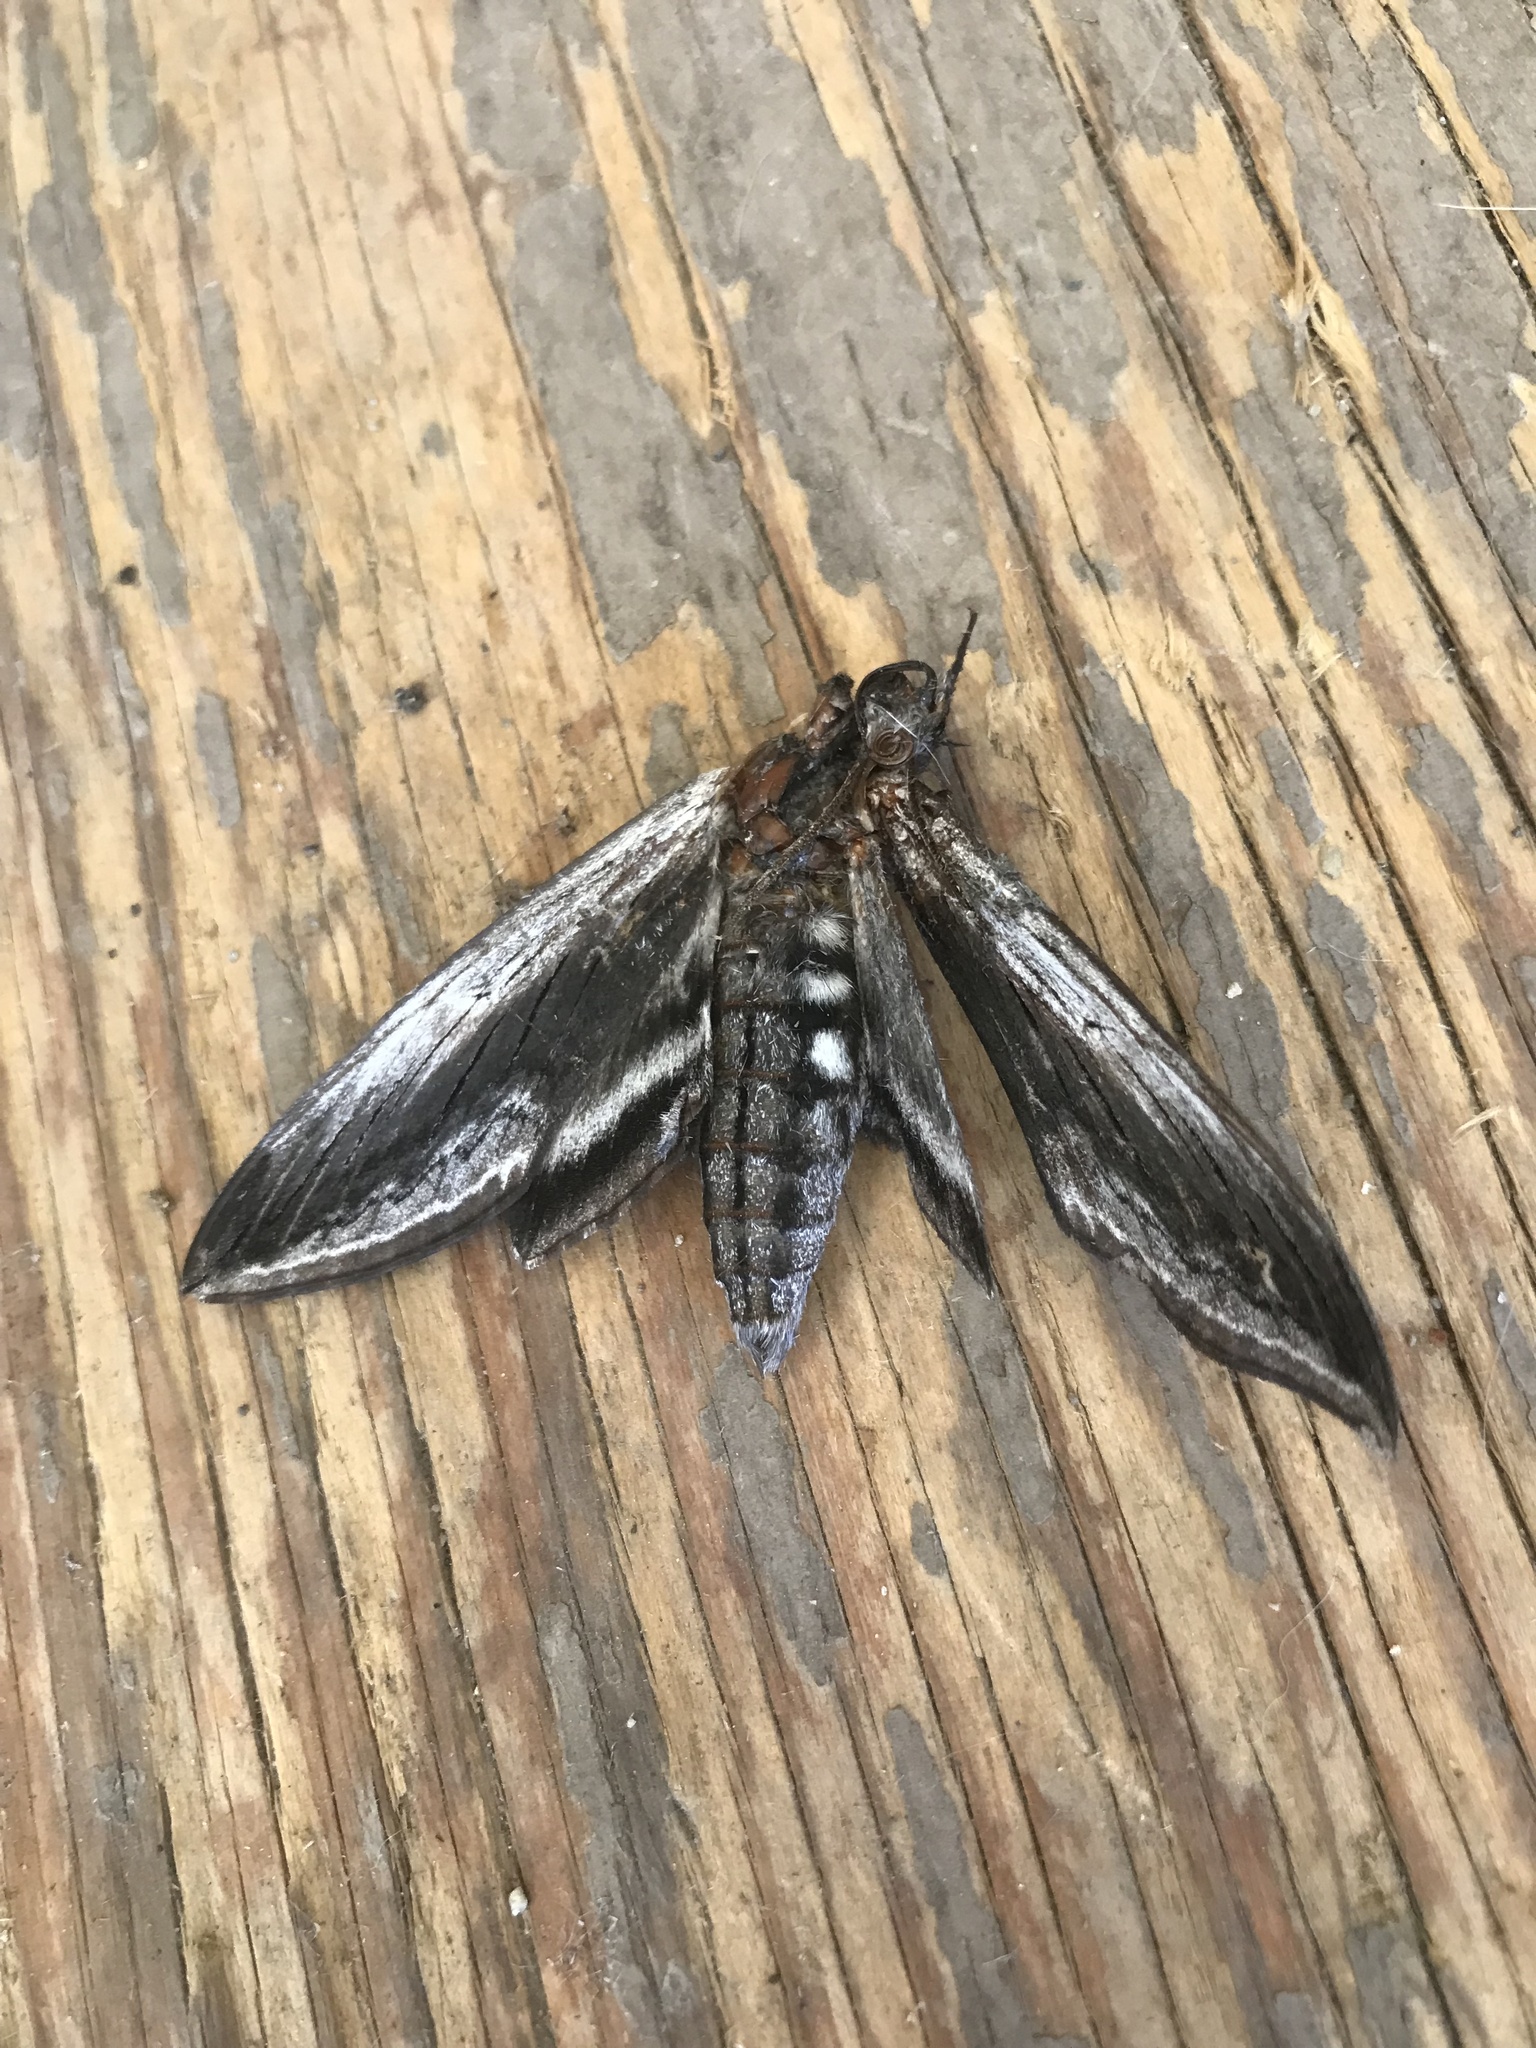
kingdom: Animalia
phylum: Arthropoda
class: Insecta
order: Lepidoptera
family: Sphingidae
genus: Sphinx
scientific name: Sphinx drupiferarum
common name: Wild cherry sphinx
